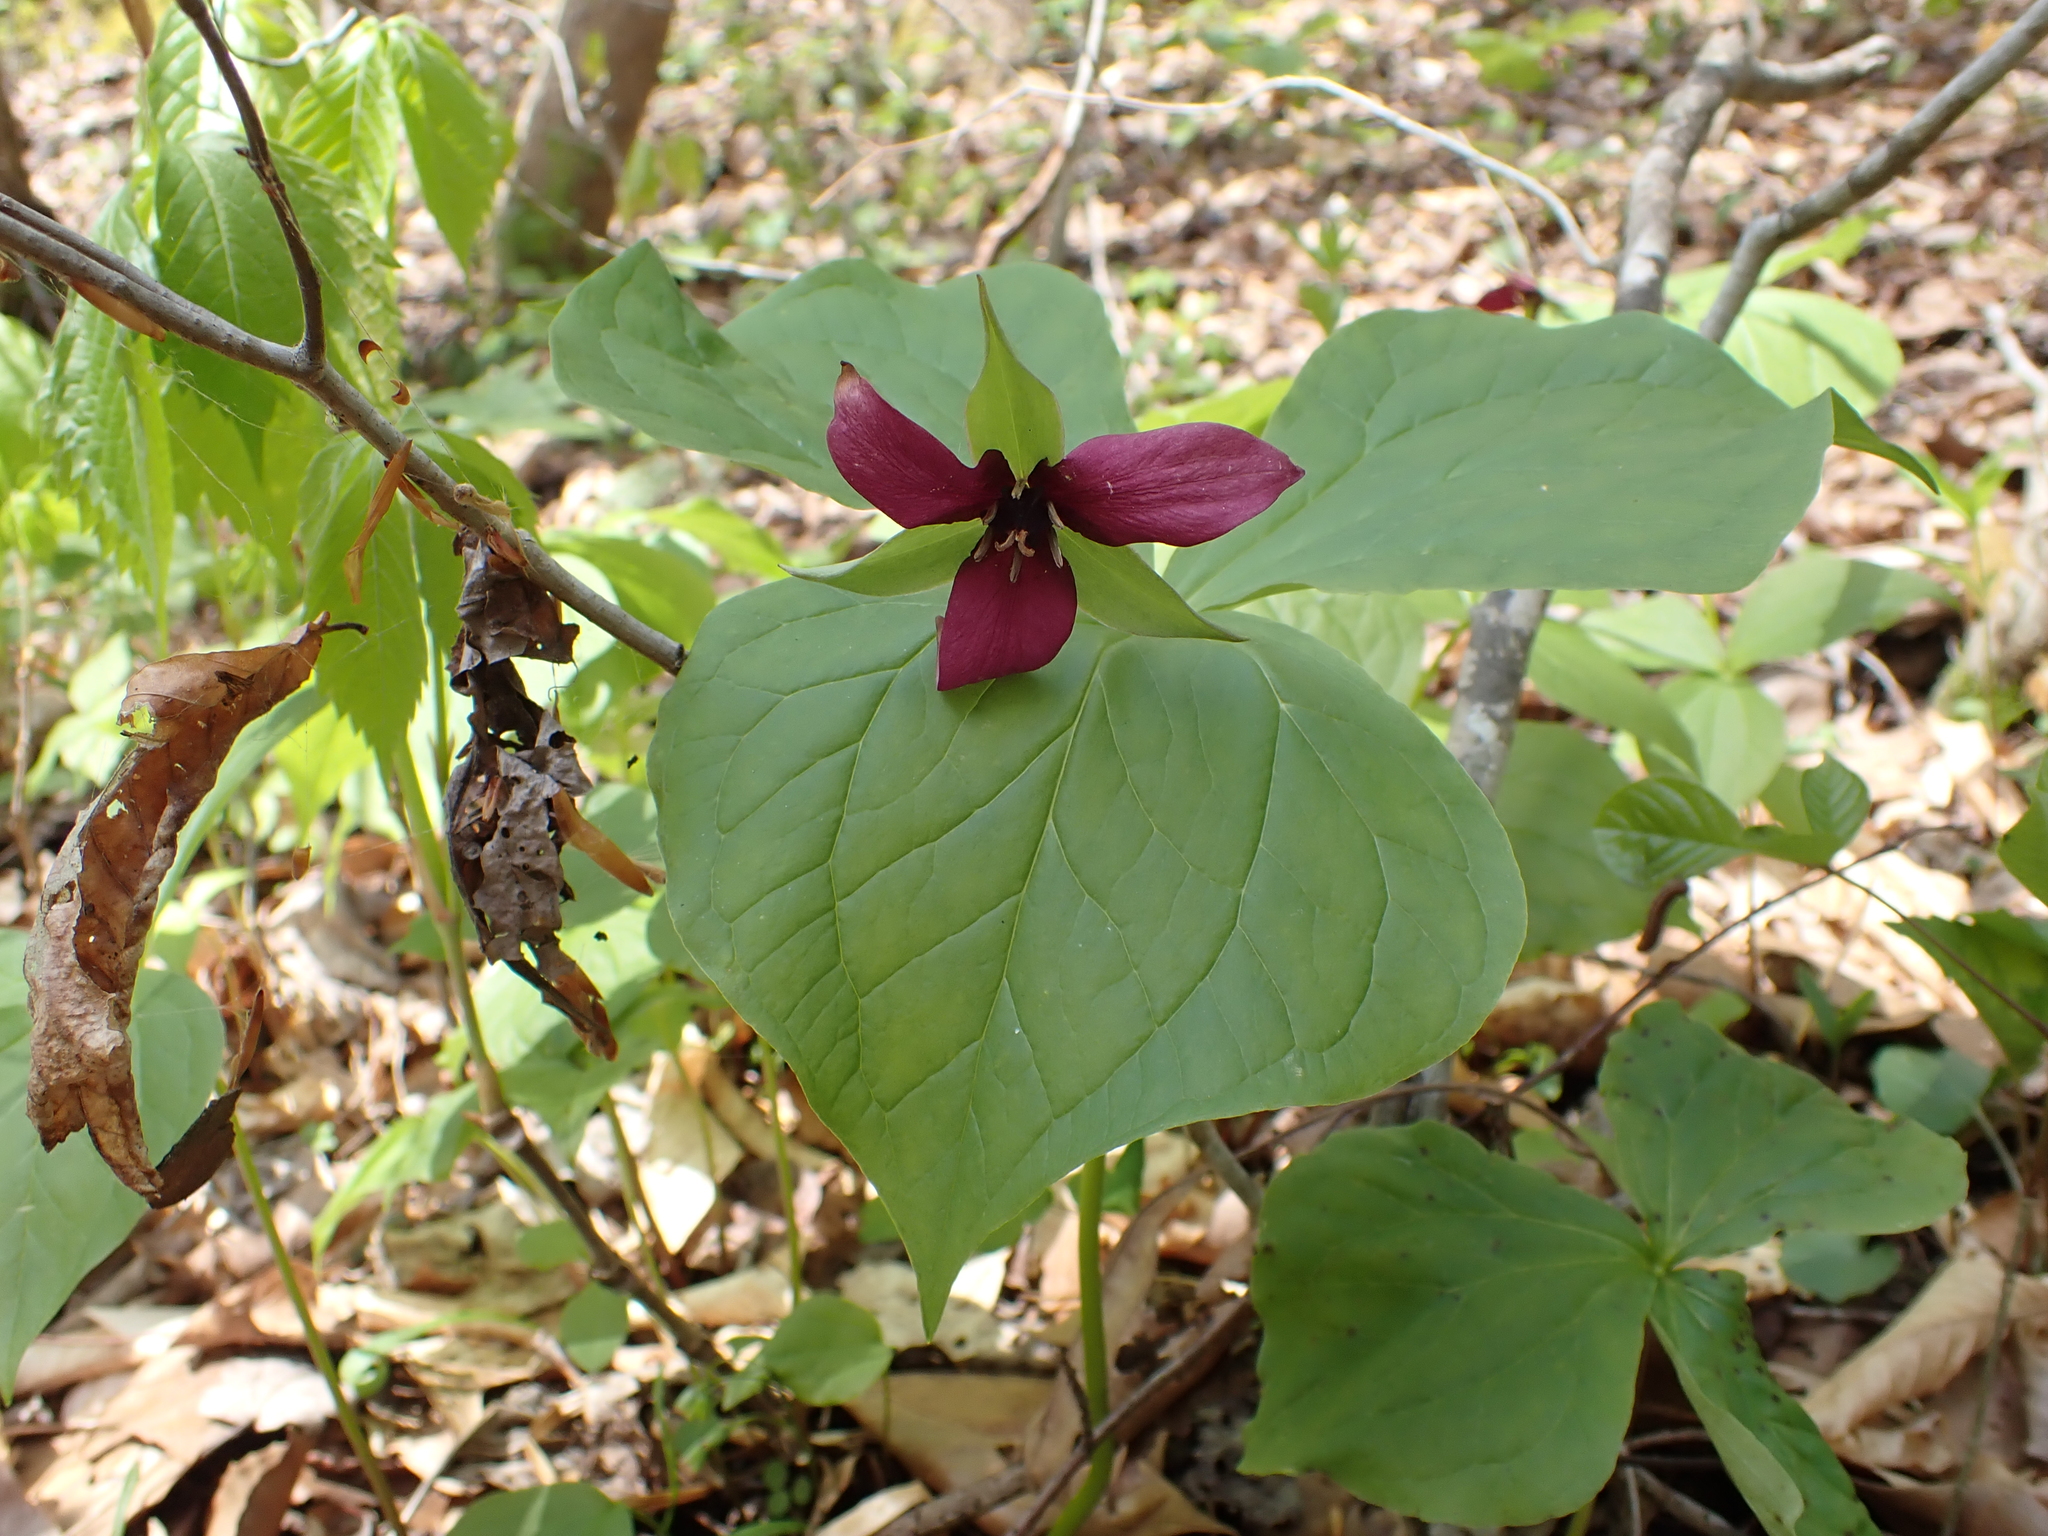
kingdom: Plantae
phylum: Tracheophyta
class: Liliopsida
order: Liliales
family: Melanthiaceae
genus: Trillium
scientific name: Trillium erectum
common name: Purple trillium
